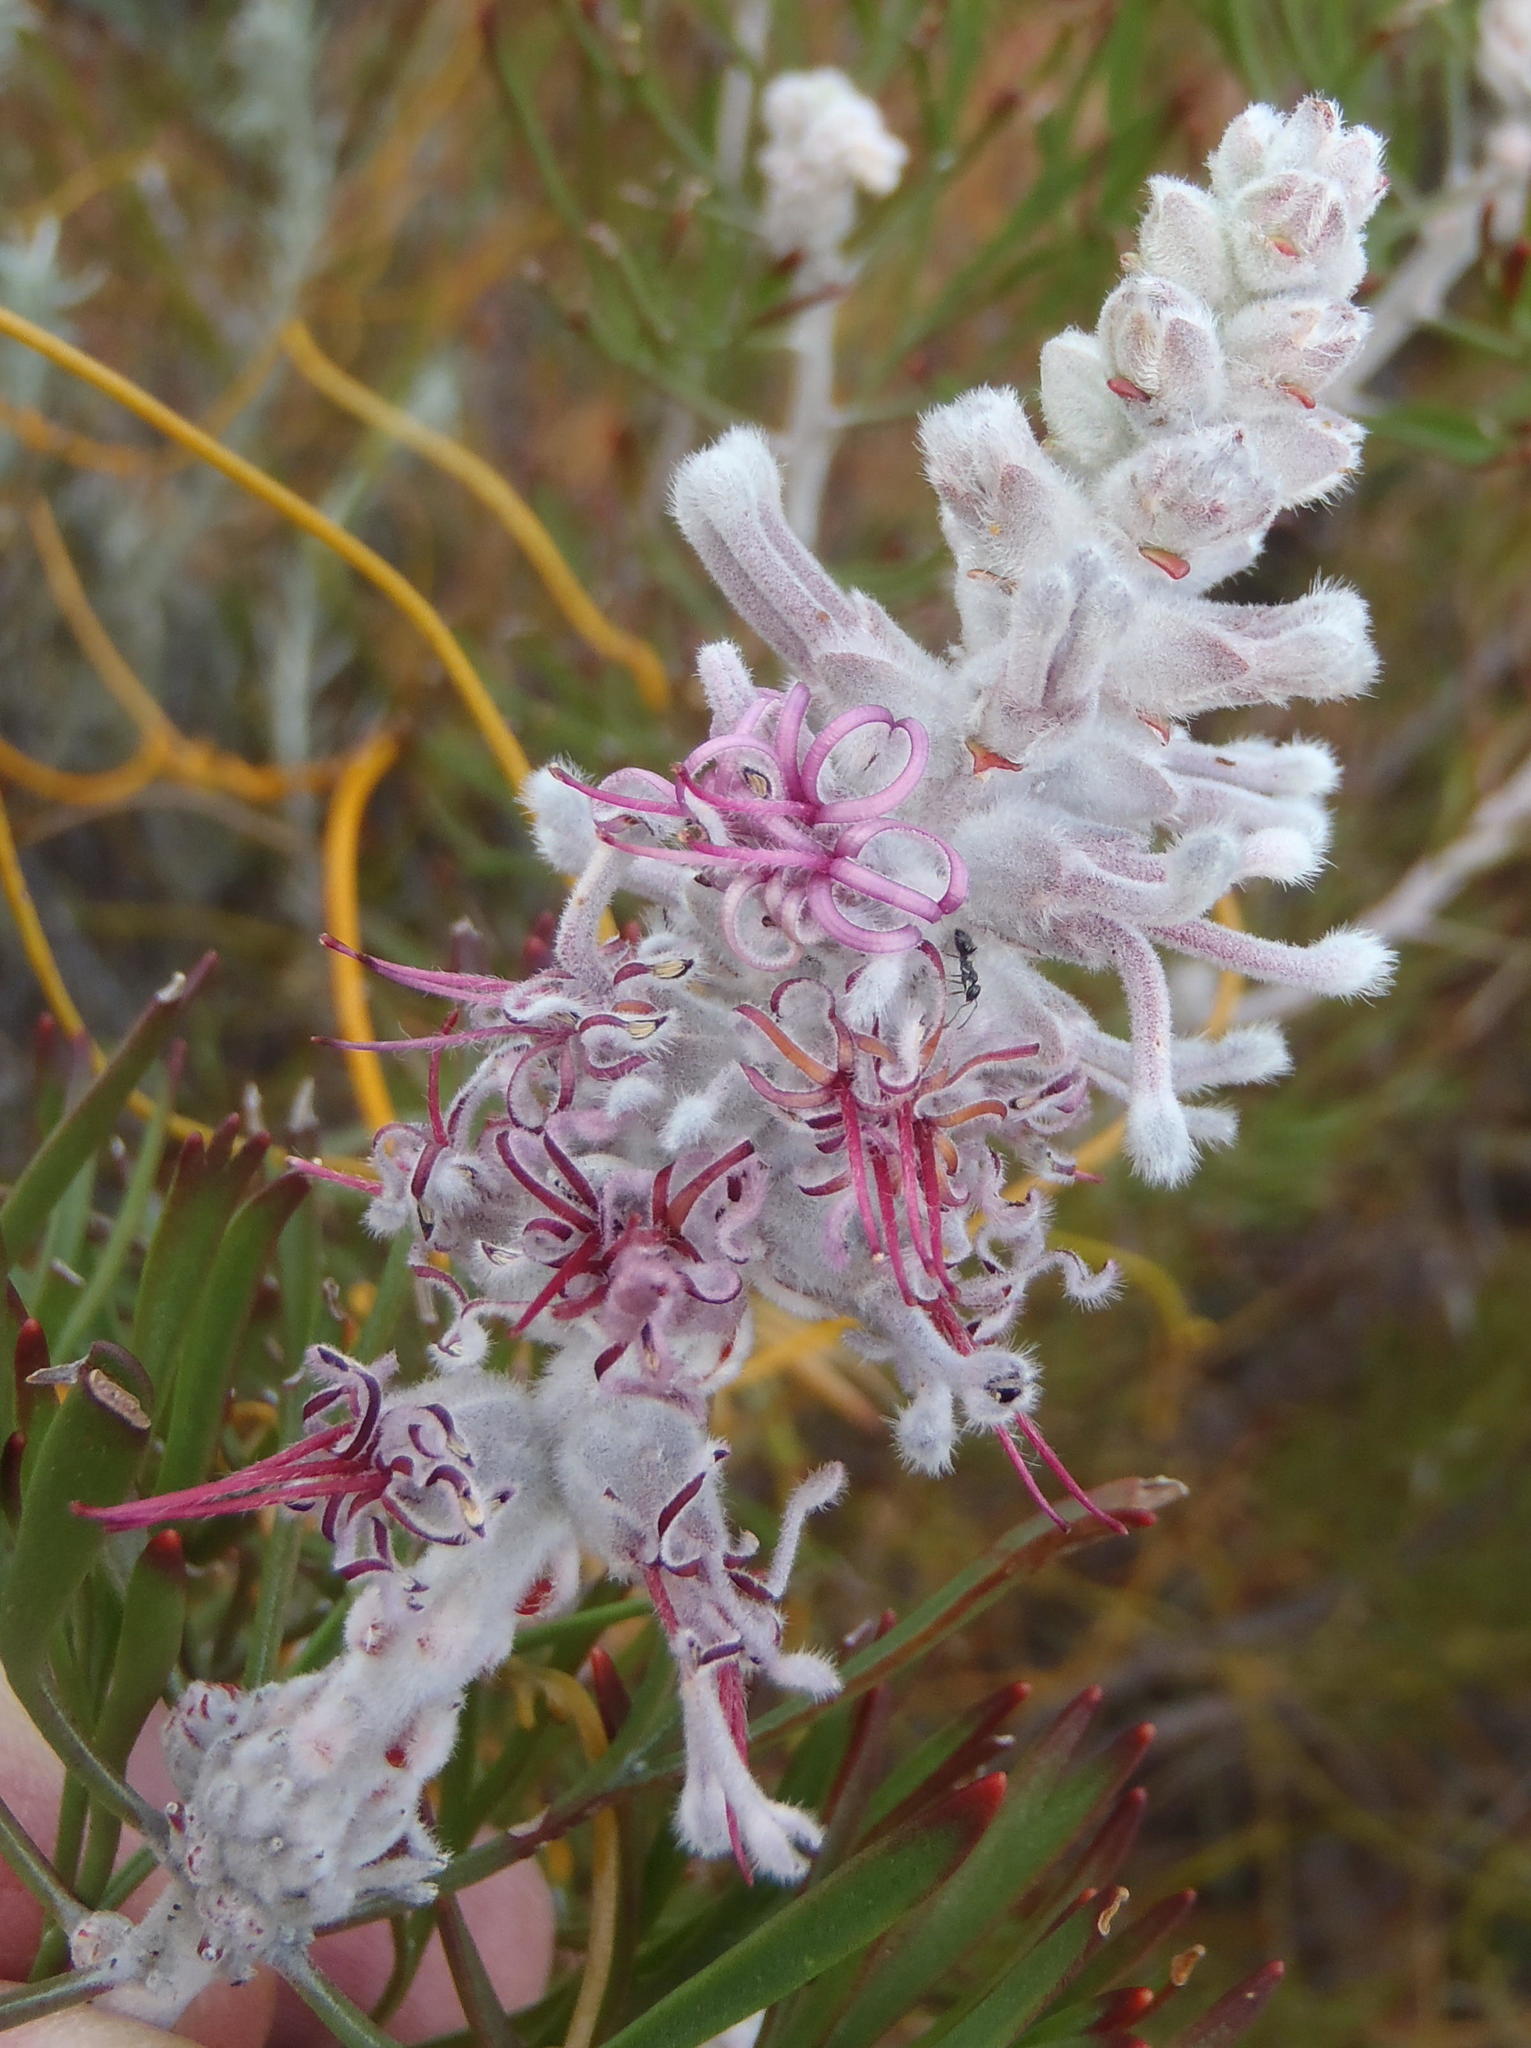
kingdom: Plantae
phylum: Tracheophyta
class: Magnoliopsida
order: Proteales
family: Proteaceae
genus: Paranomus
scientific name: Paranomus dispersus
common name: Long-head sceptre
